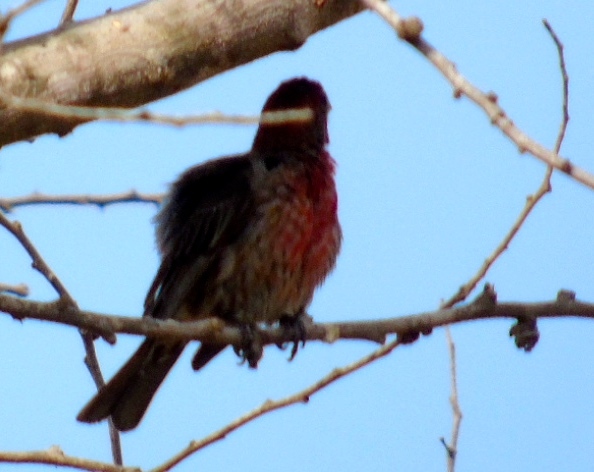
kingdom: Animalia
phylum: Chordata
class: Aves
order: Passeriformes
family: Fringillidae
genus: Haemorhous
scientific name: Haemorhous mexicanus
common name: House finch
